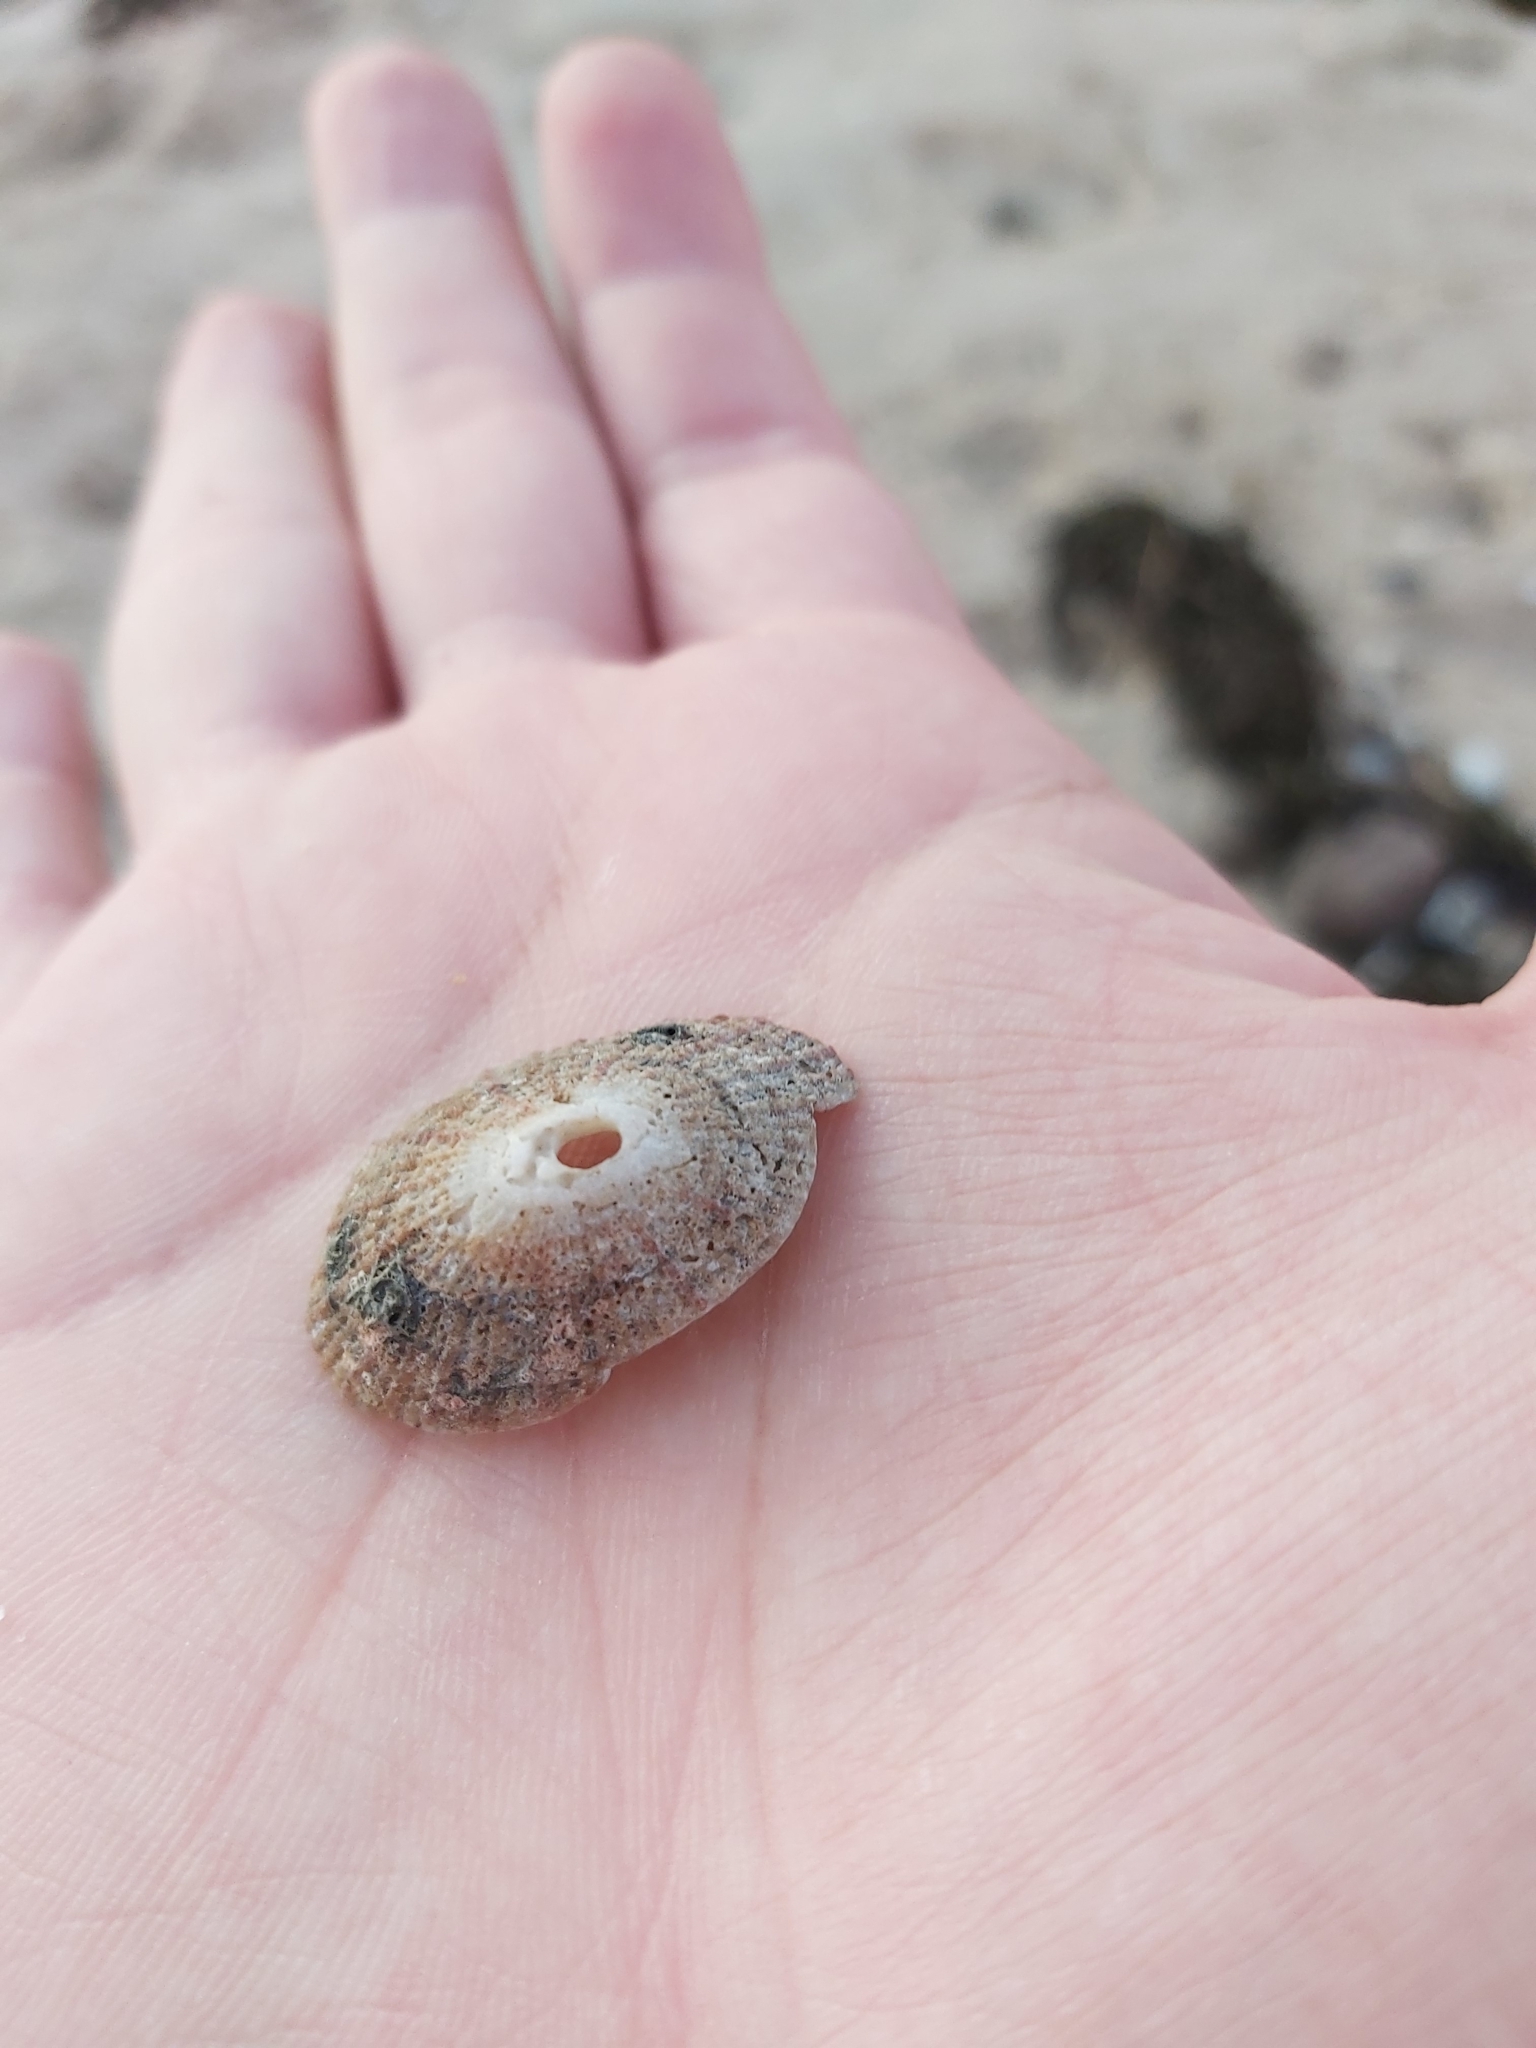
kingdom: Animalia
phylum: Mollusca
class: Gastropoda
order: Lepetellida
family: Fissurellidae
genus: Diodora
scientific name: Diodora lineata
